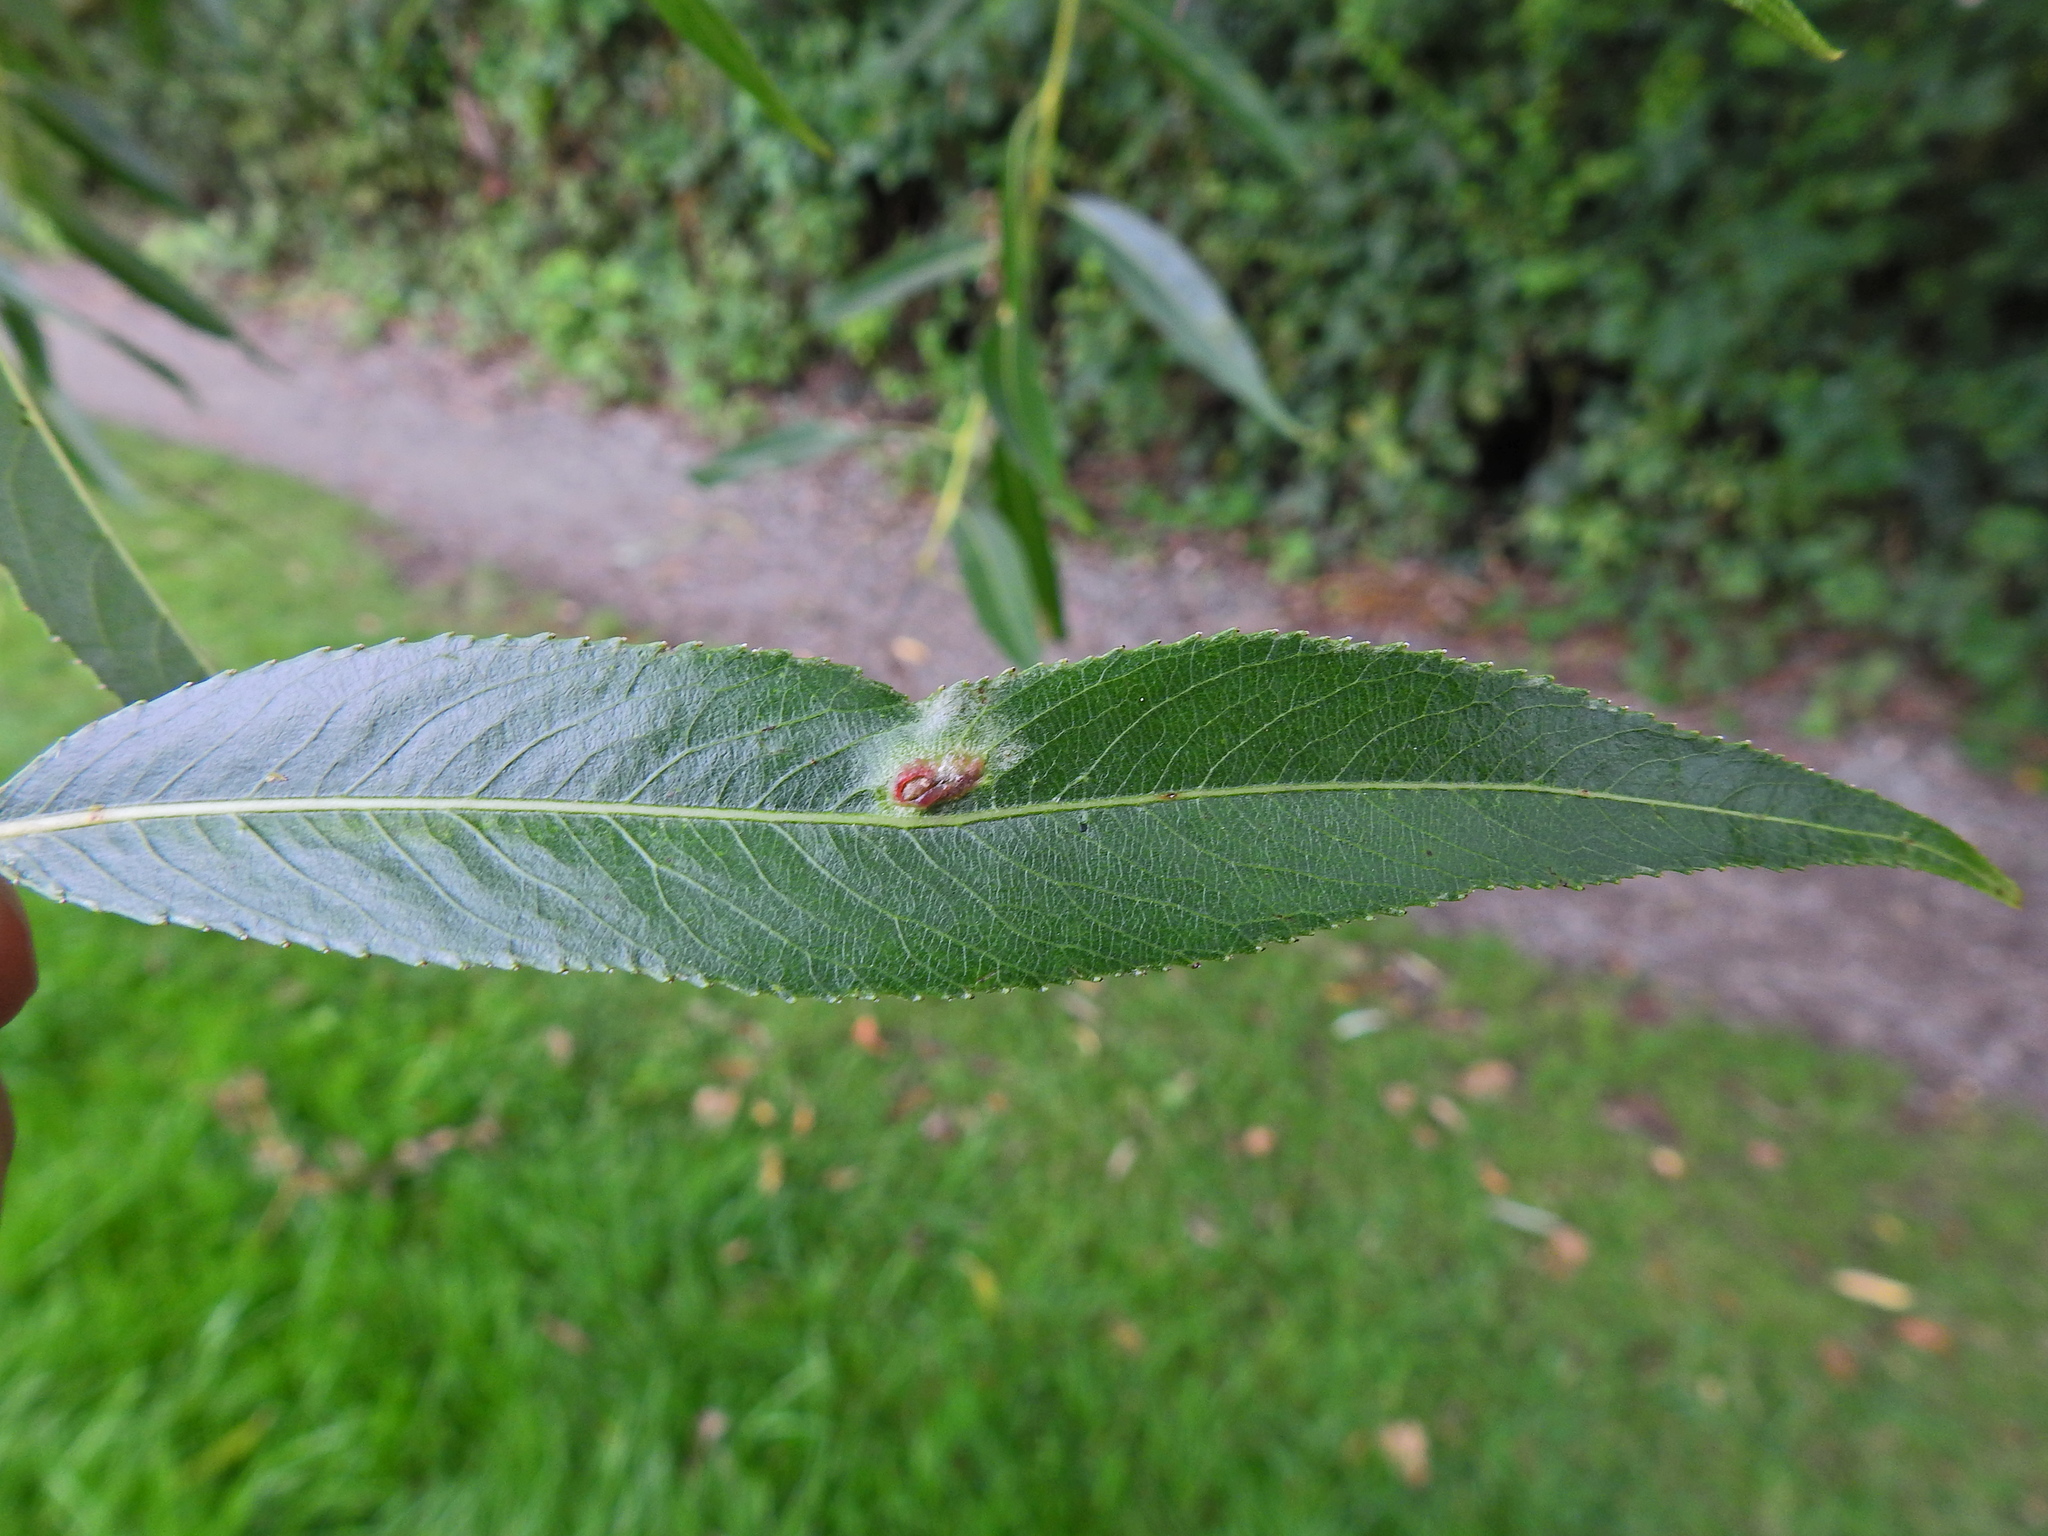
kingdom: Animalia
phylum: Arthropoda
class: Insecta
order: Hymenoptera
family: Tenthredinidae
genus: Pontania
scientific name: Pontania proxima
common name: Common sawfly
